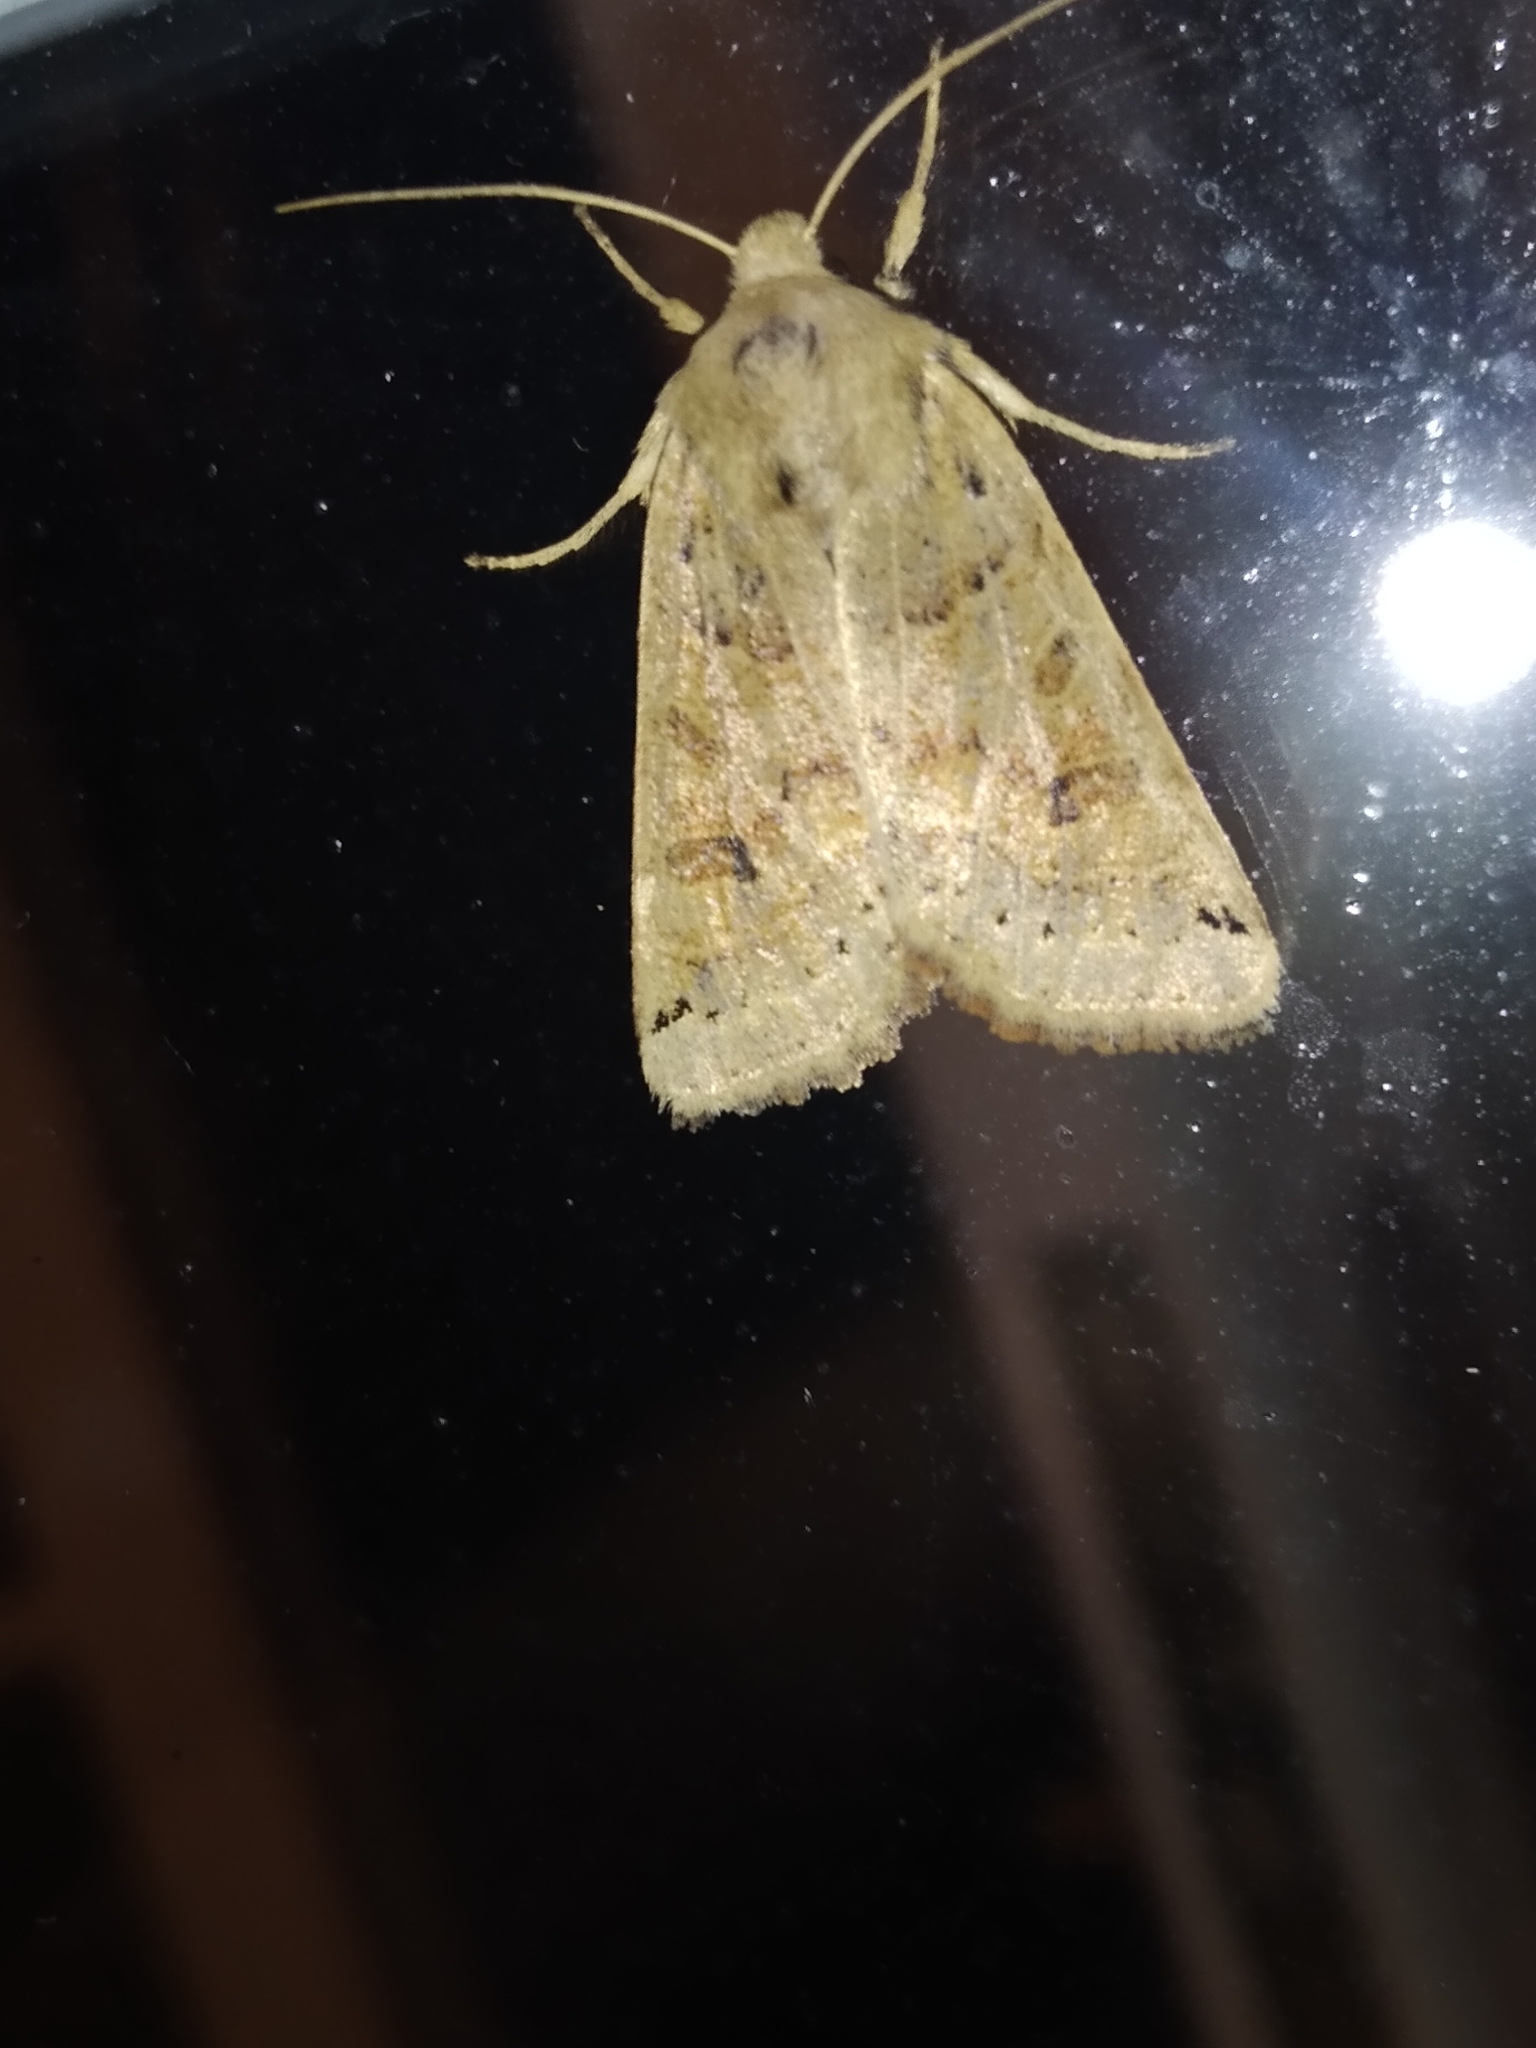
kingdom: Animalia
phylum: Arthropoda
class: Insecta
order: Lepidoptera
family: Noctuidae
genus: Agrochola
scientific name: Agrochola lunosa
